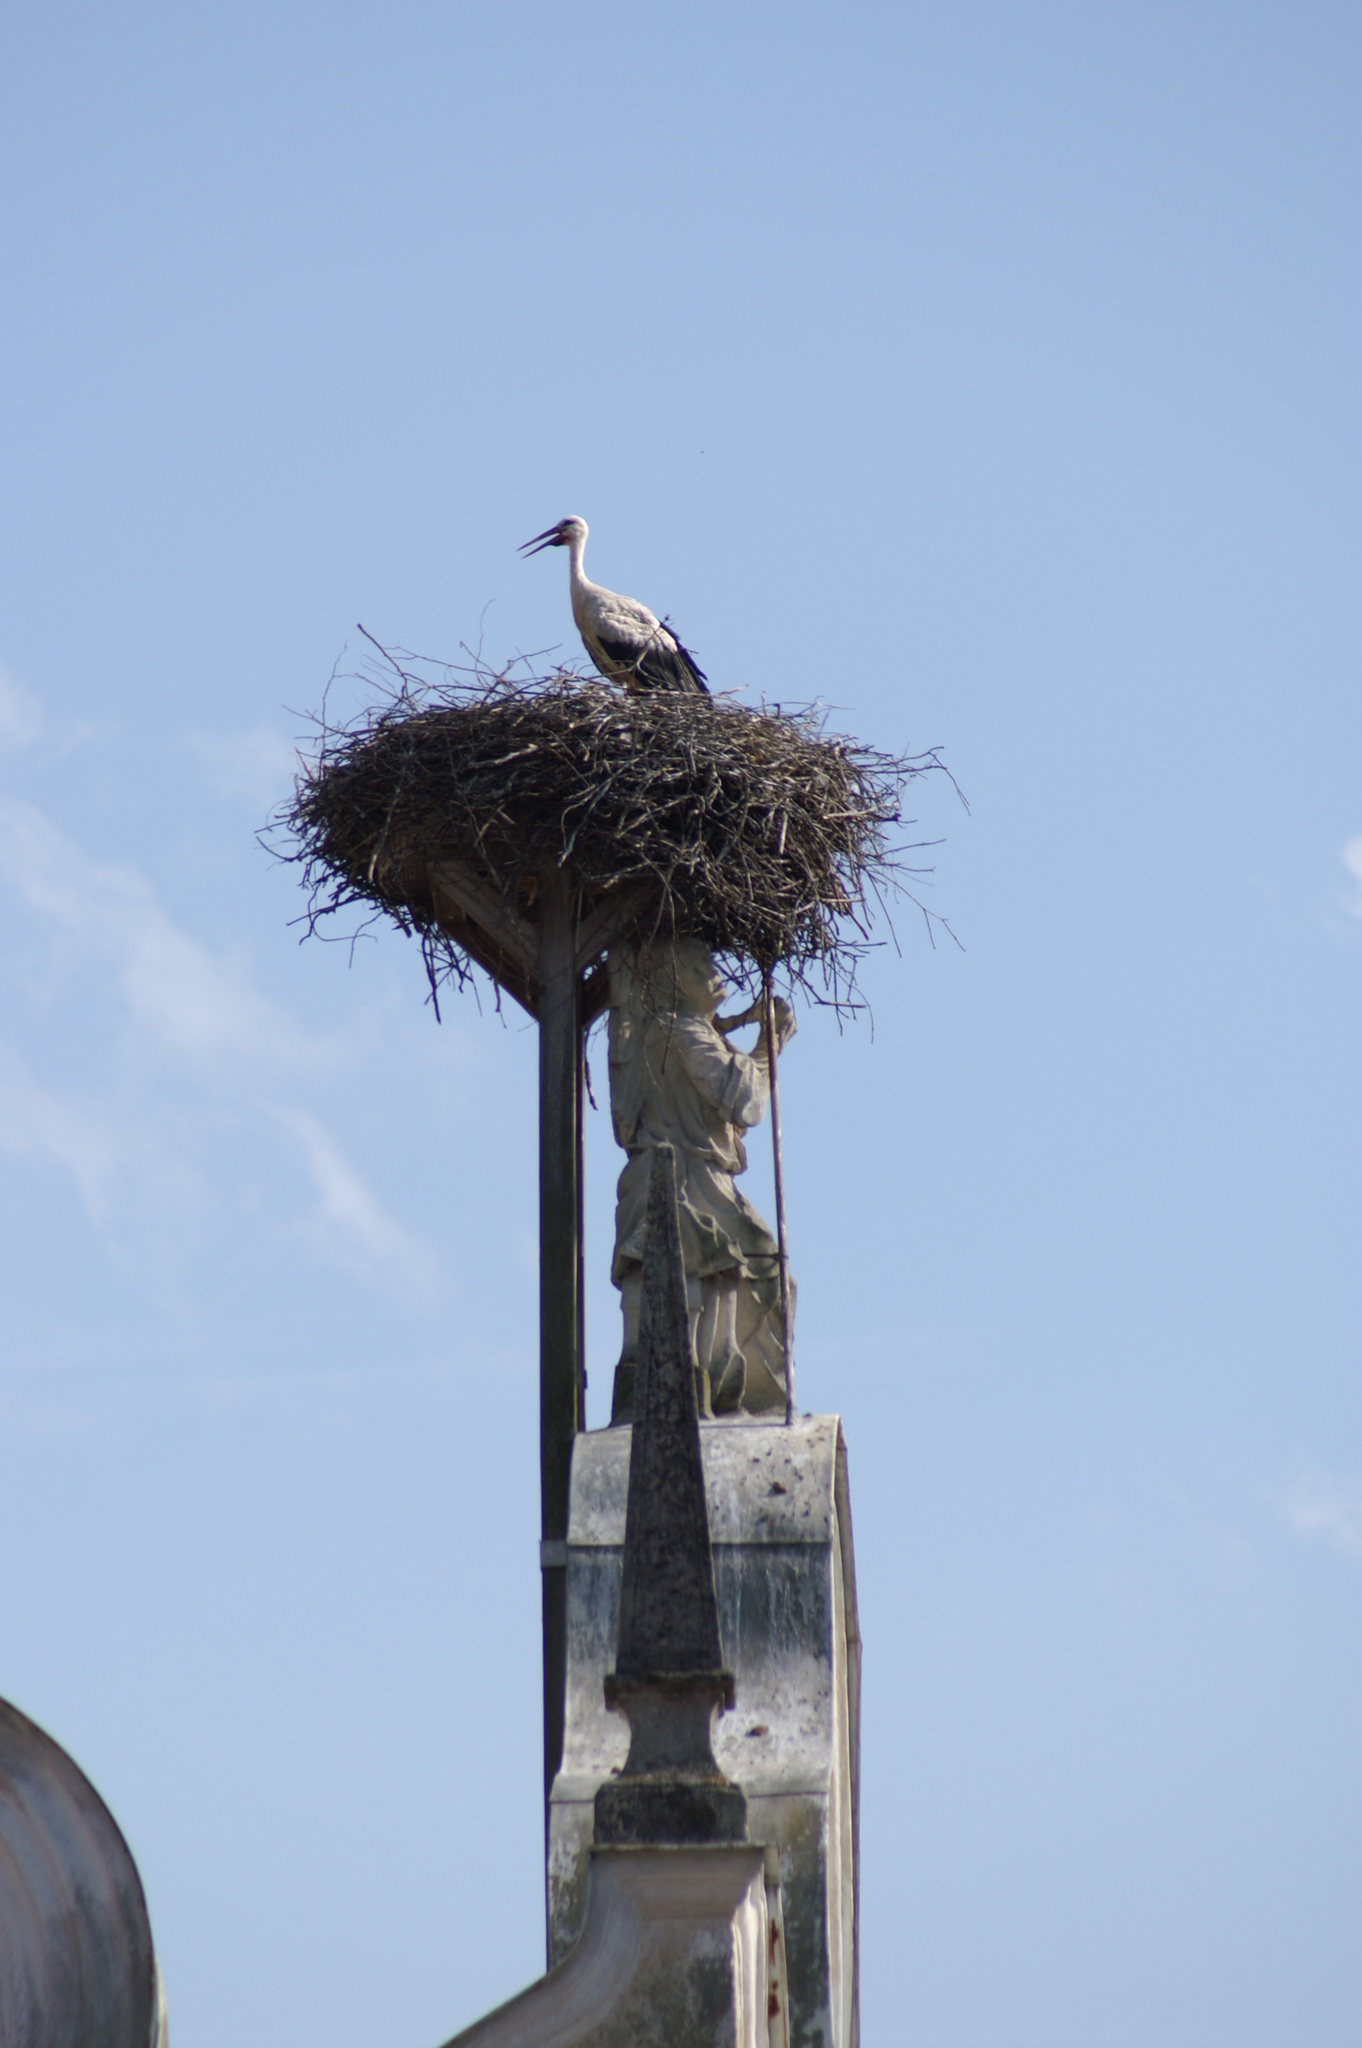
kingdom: Animalia
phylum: Chordata
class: Aves
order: Ciconiiformes
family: Ciconiidae
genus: Ciconia
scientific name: Ciconia ciconia
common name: White stork
